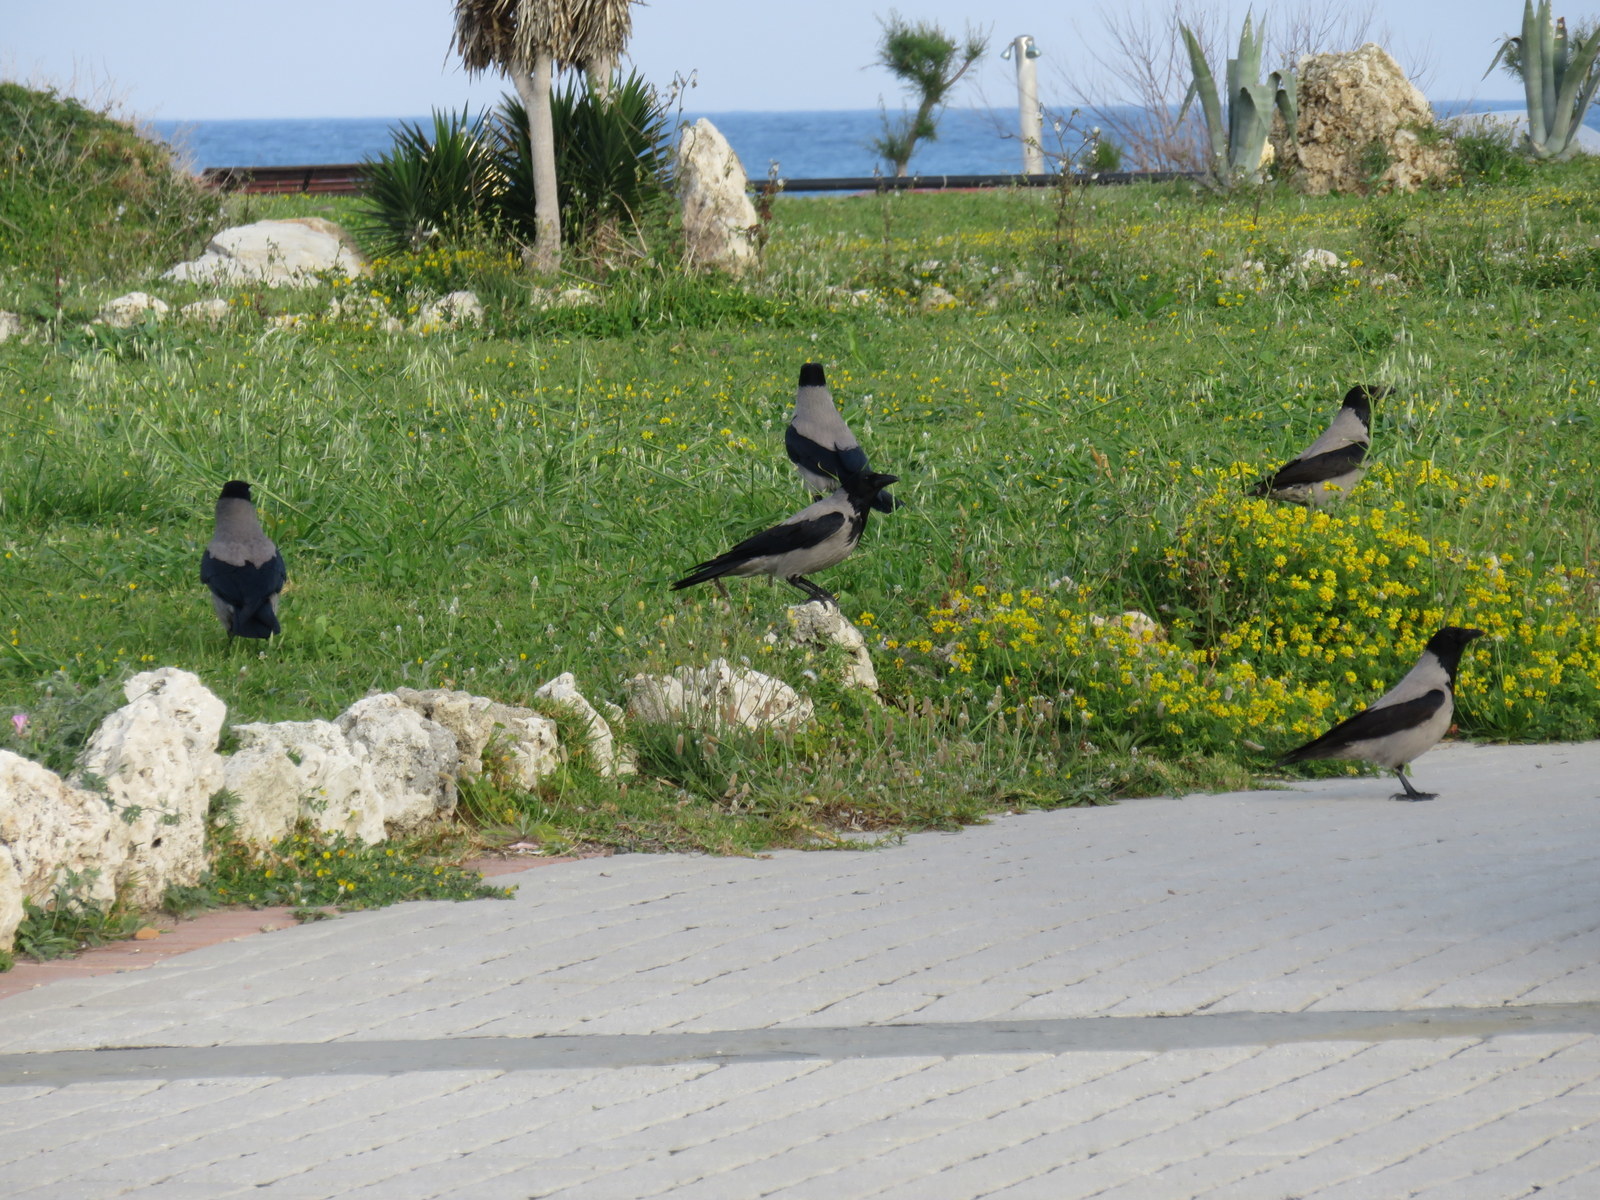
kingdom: Animalia
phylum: Chordata
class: Aves
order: Passeriformes
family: Corvidae
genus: Corvus
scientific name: Corvus cornix
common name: Hooded crow
